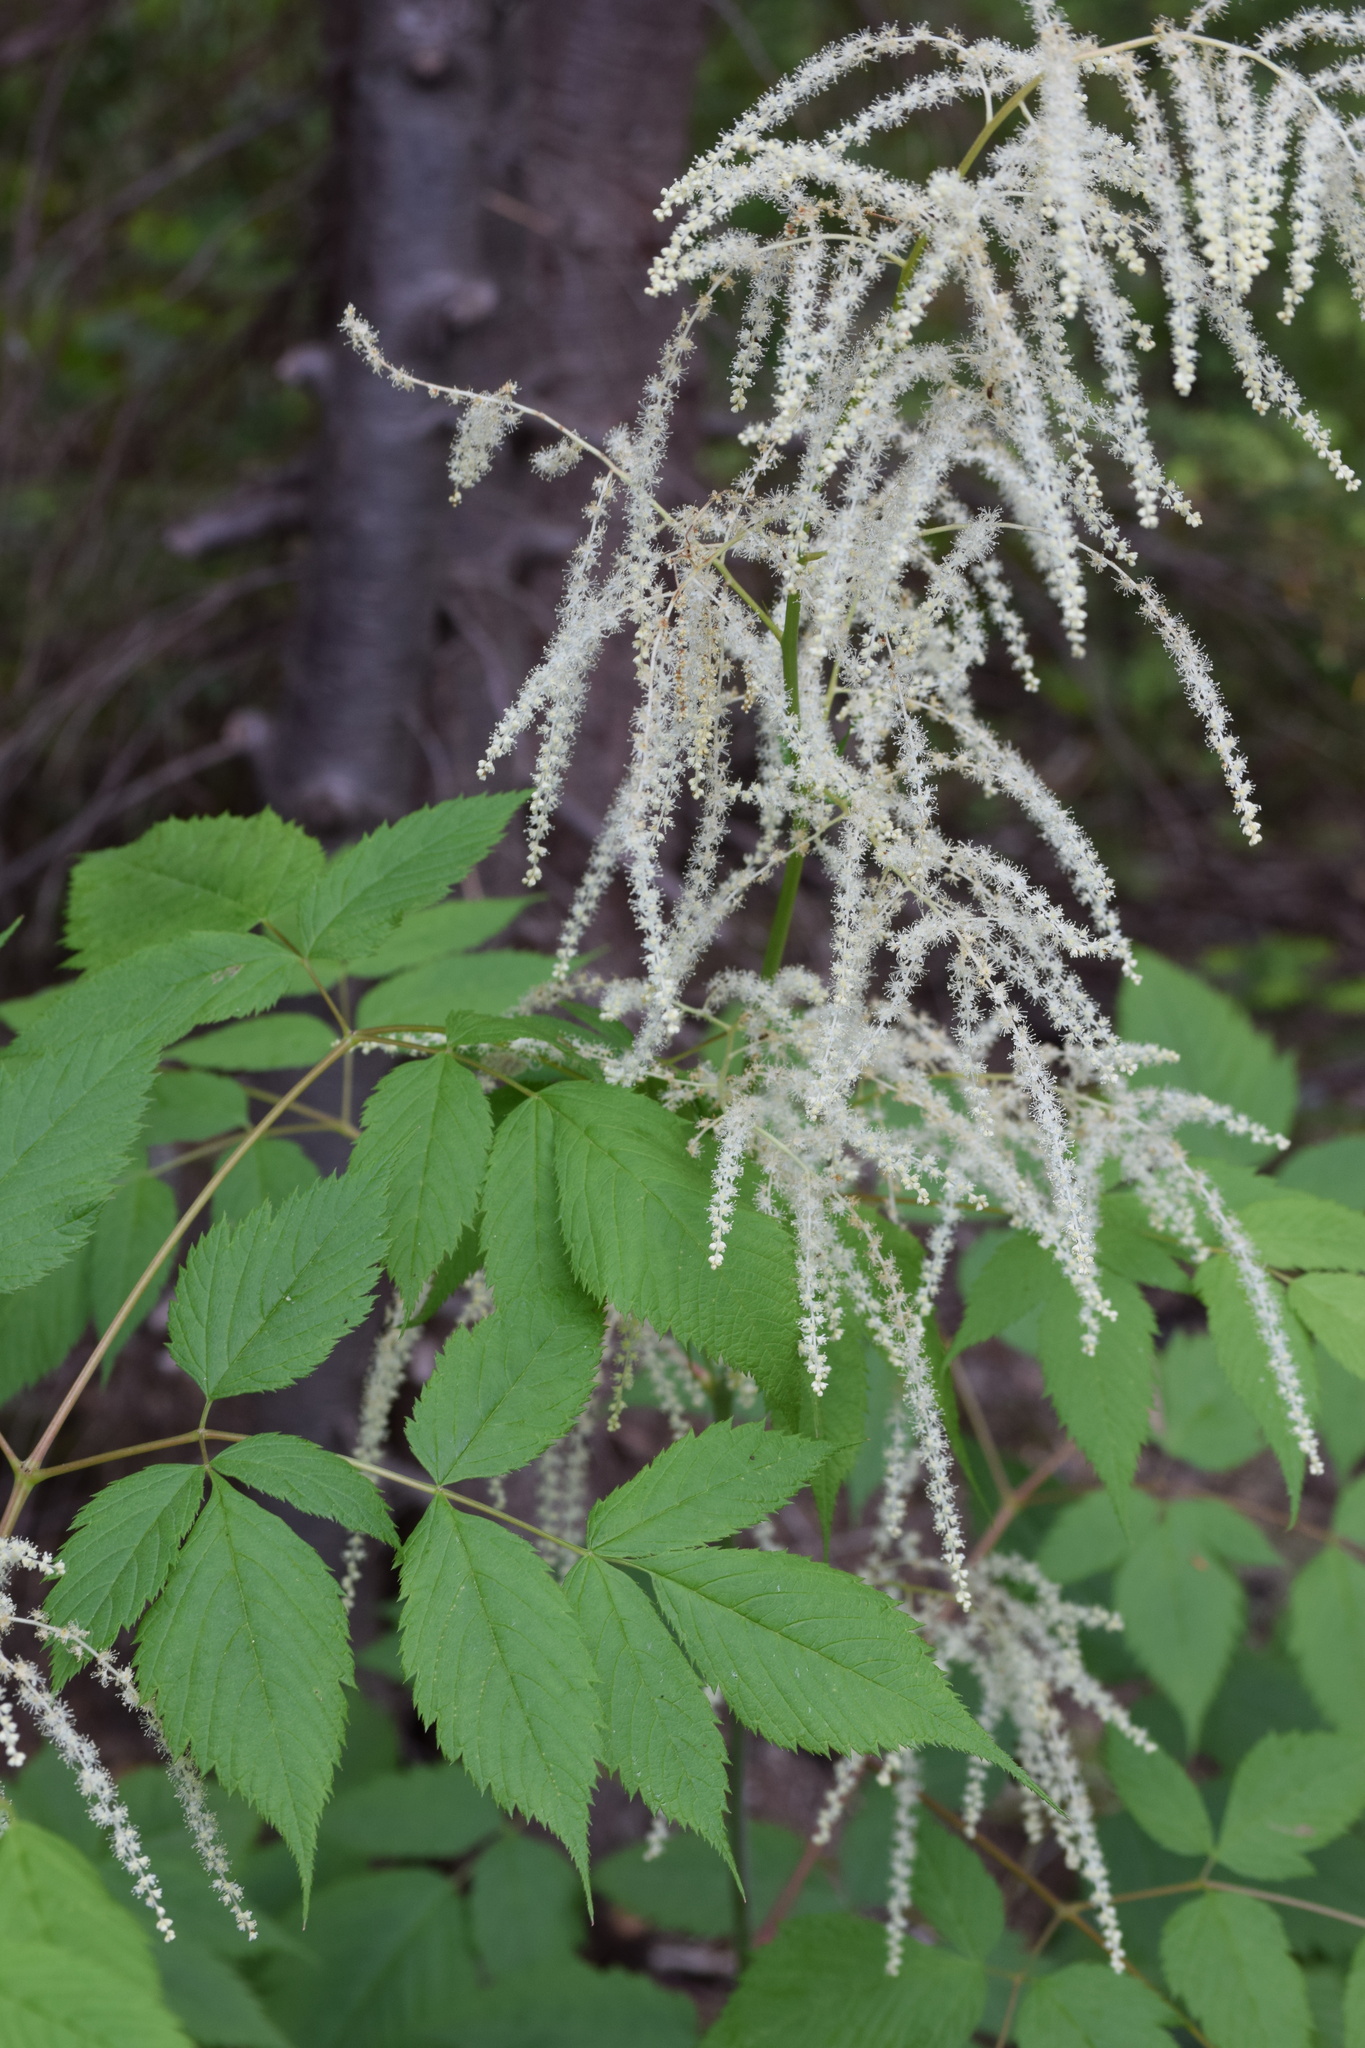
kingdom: Plantae
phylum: Tracheophyta
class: Magnoliopsida
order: Rosales
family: Rosaceae
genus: Aruncus
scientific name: Aruncus dioicus
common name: Buck's-beard
